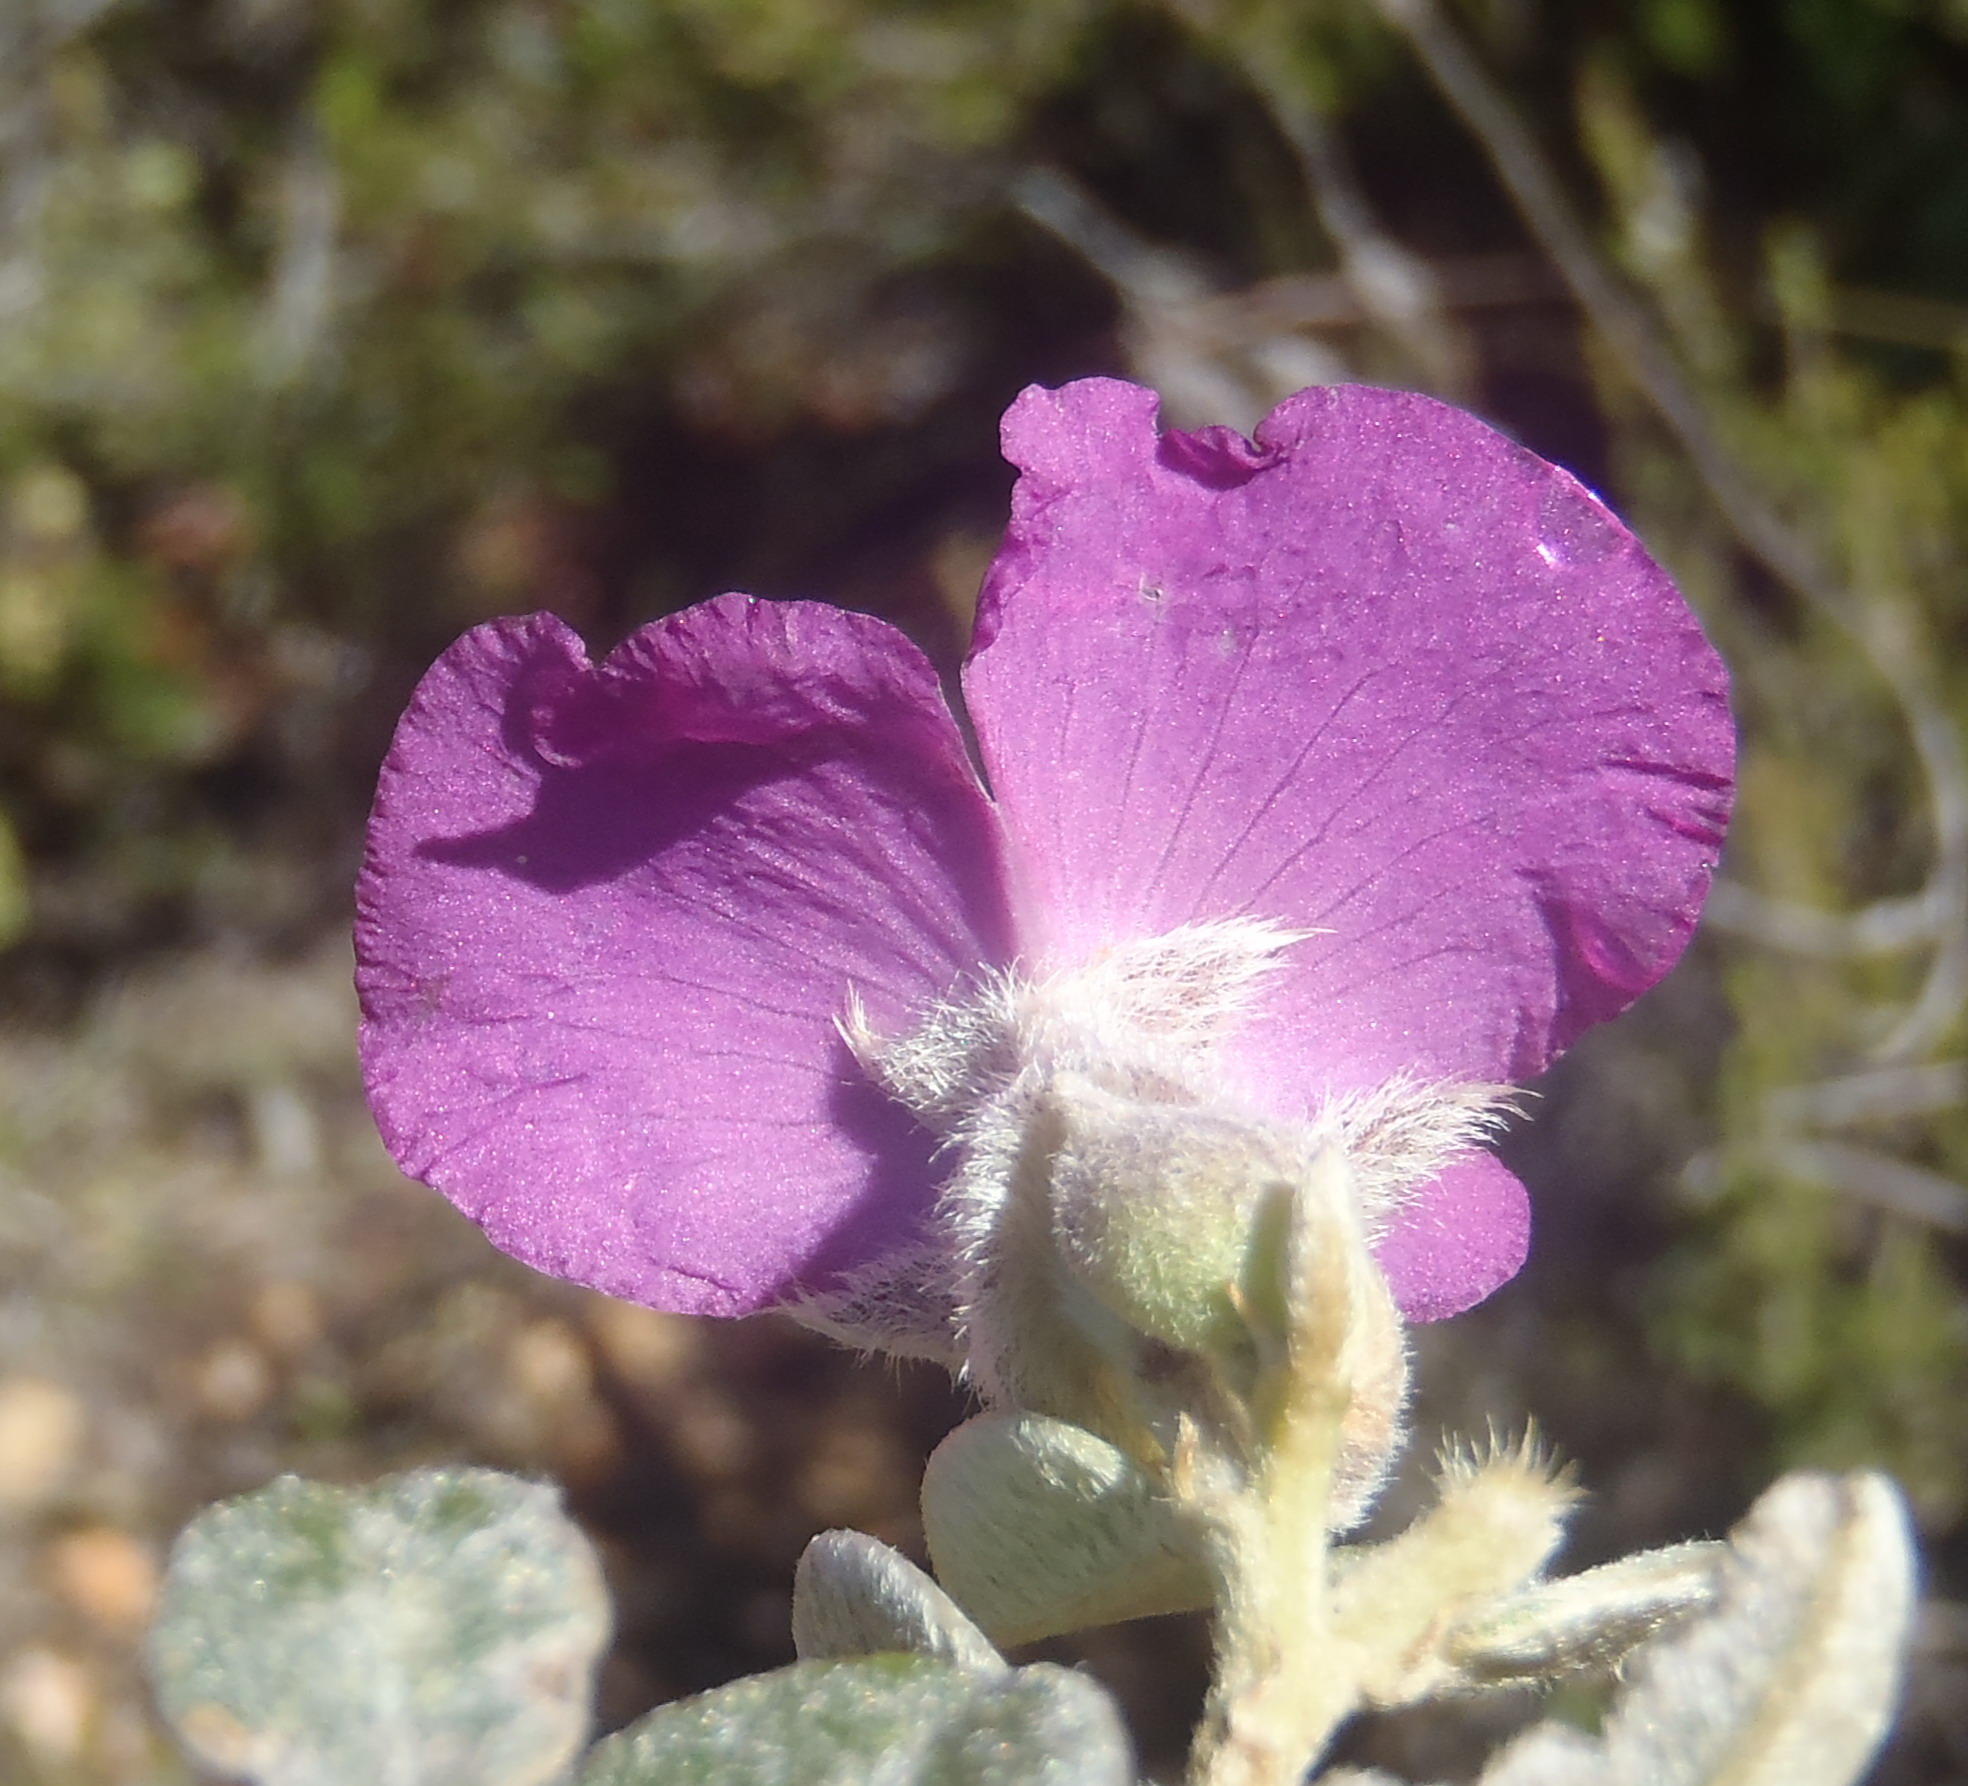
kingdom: Plantae
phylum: Tracheophyta
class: Magnoliopsida
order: Fabales
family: Fabaceae
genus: Podalyria
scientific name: Podalyria burchellii
